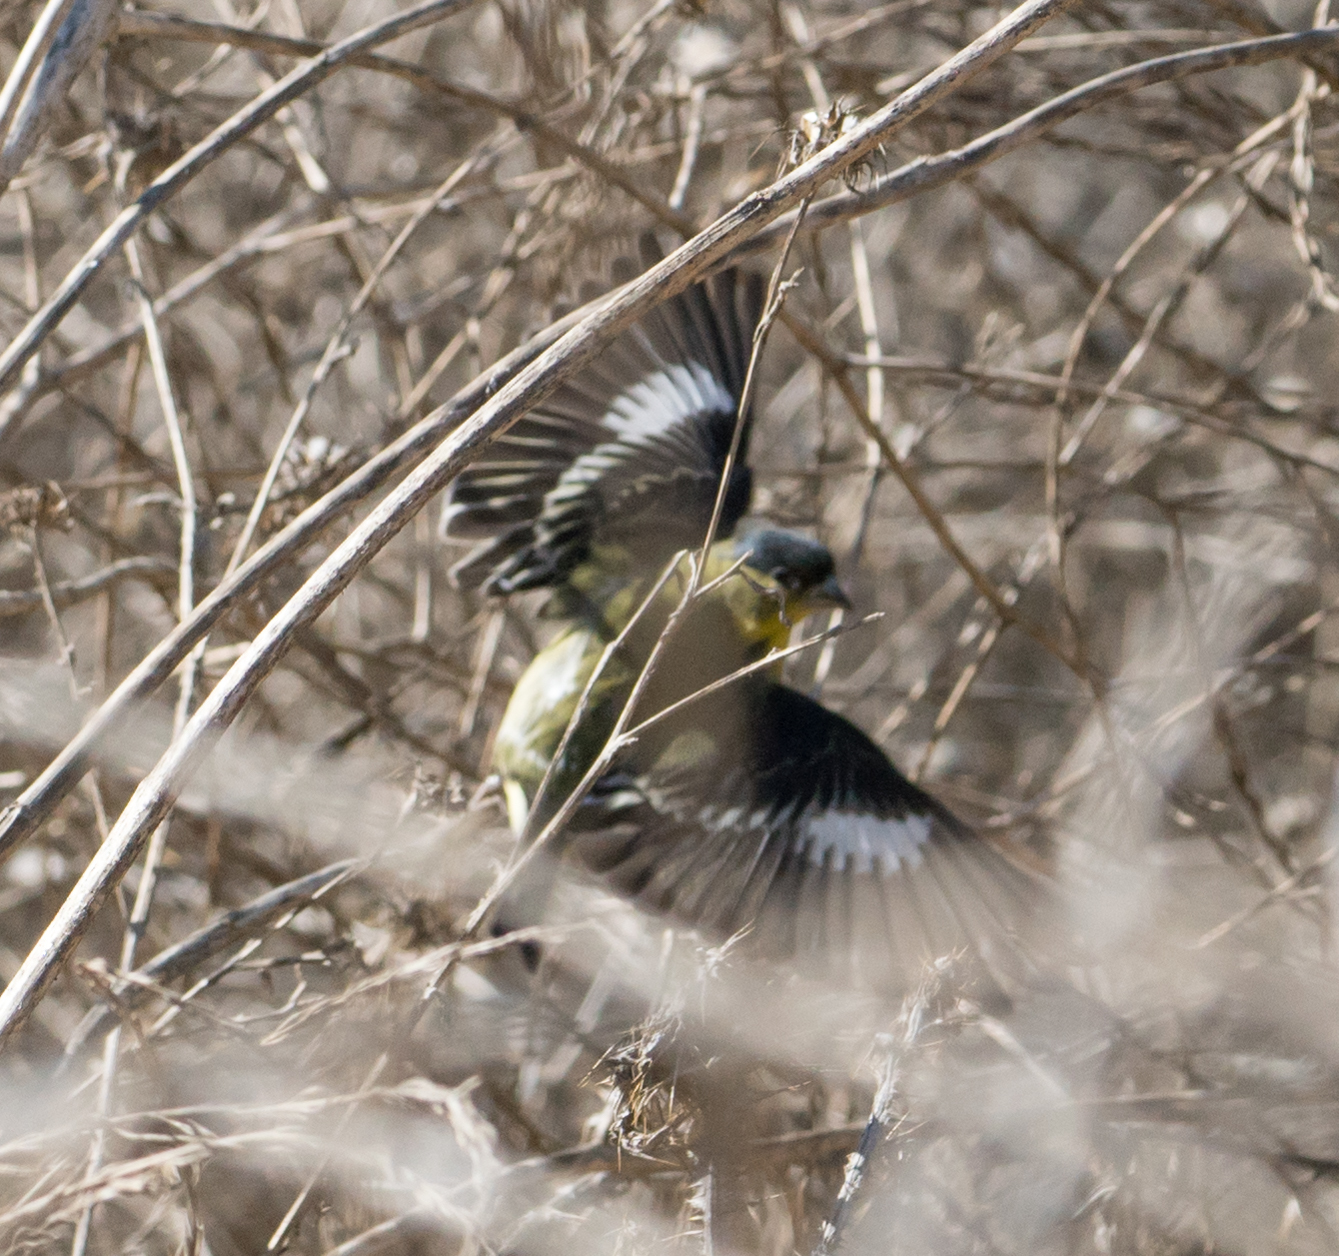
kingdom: Animalia
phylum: Chordata
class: Aves
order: Passeriformes
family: Fringillidae
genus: Spinus
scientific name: Spinus psaltria
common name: Lesser goldfinch
